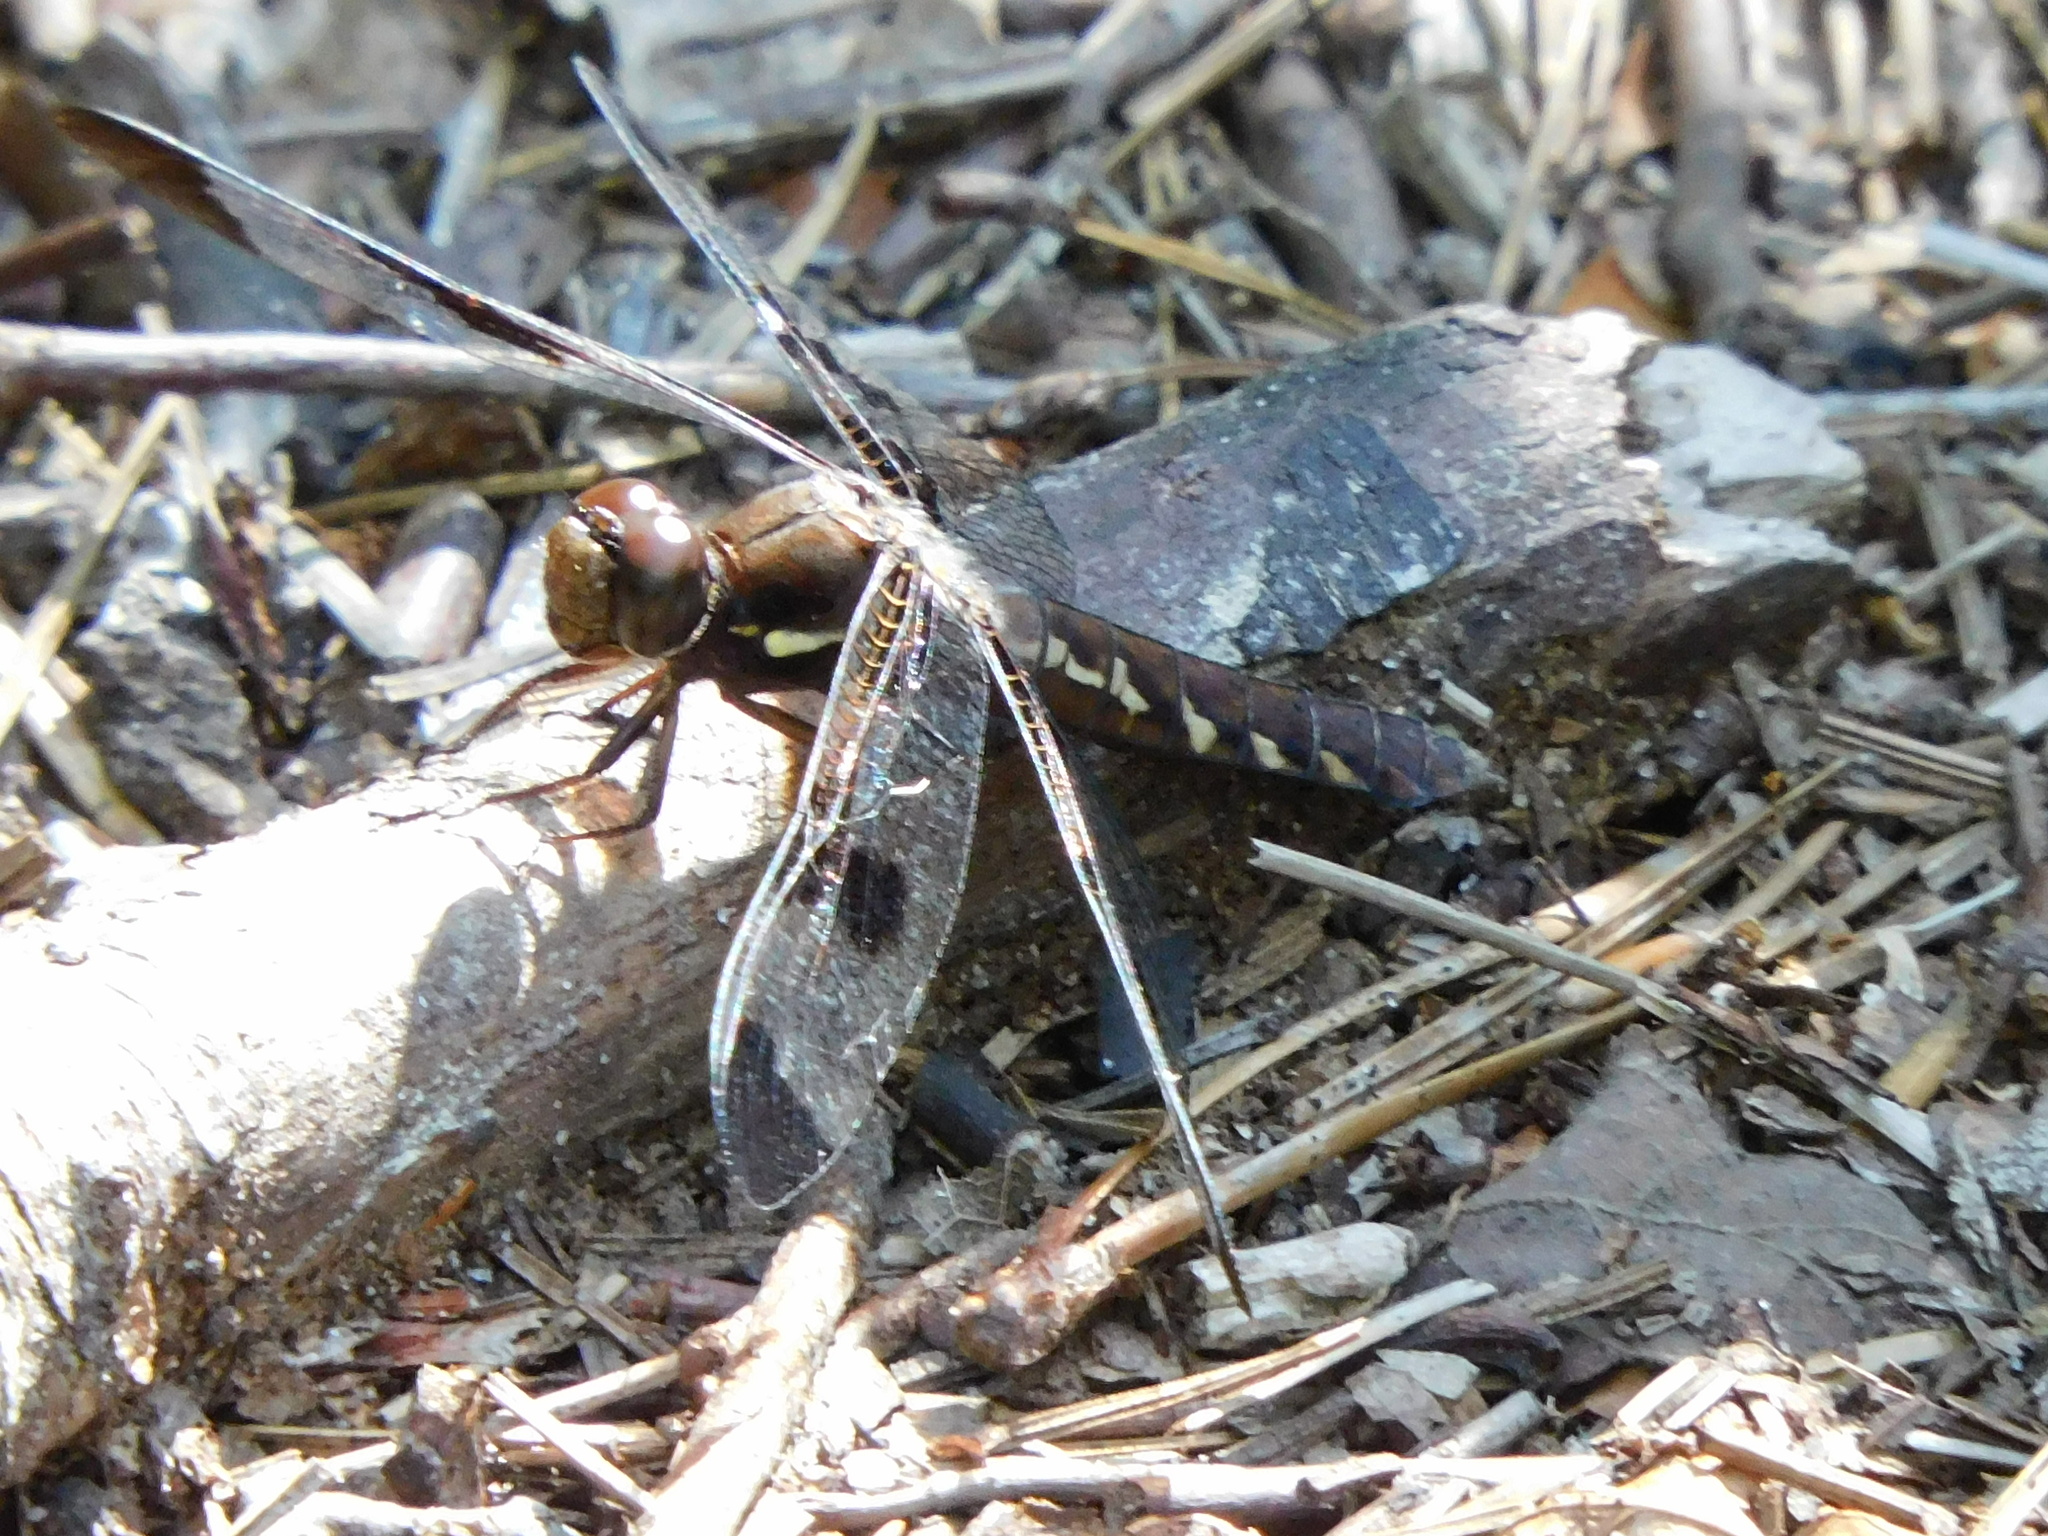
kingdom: Animalia
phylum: Arthropoda
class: Insecta
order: Odonata
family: Libellulidae
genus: Plathemis
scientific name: Plathemis lydia
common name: Common whitetail
